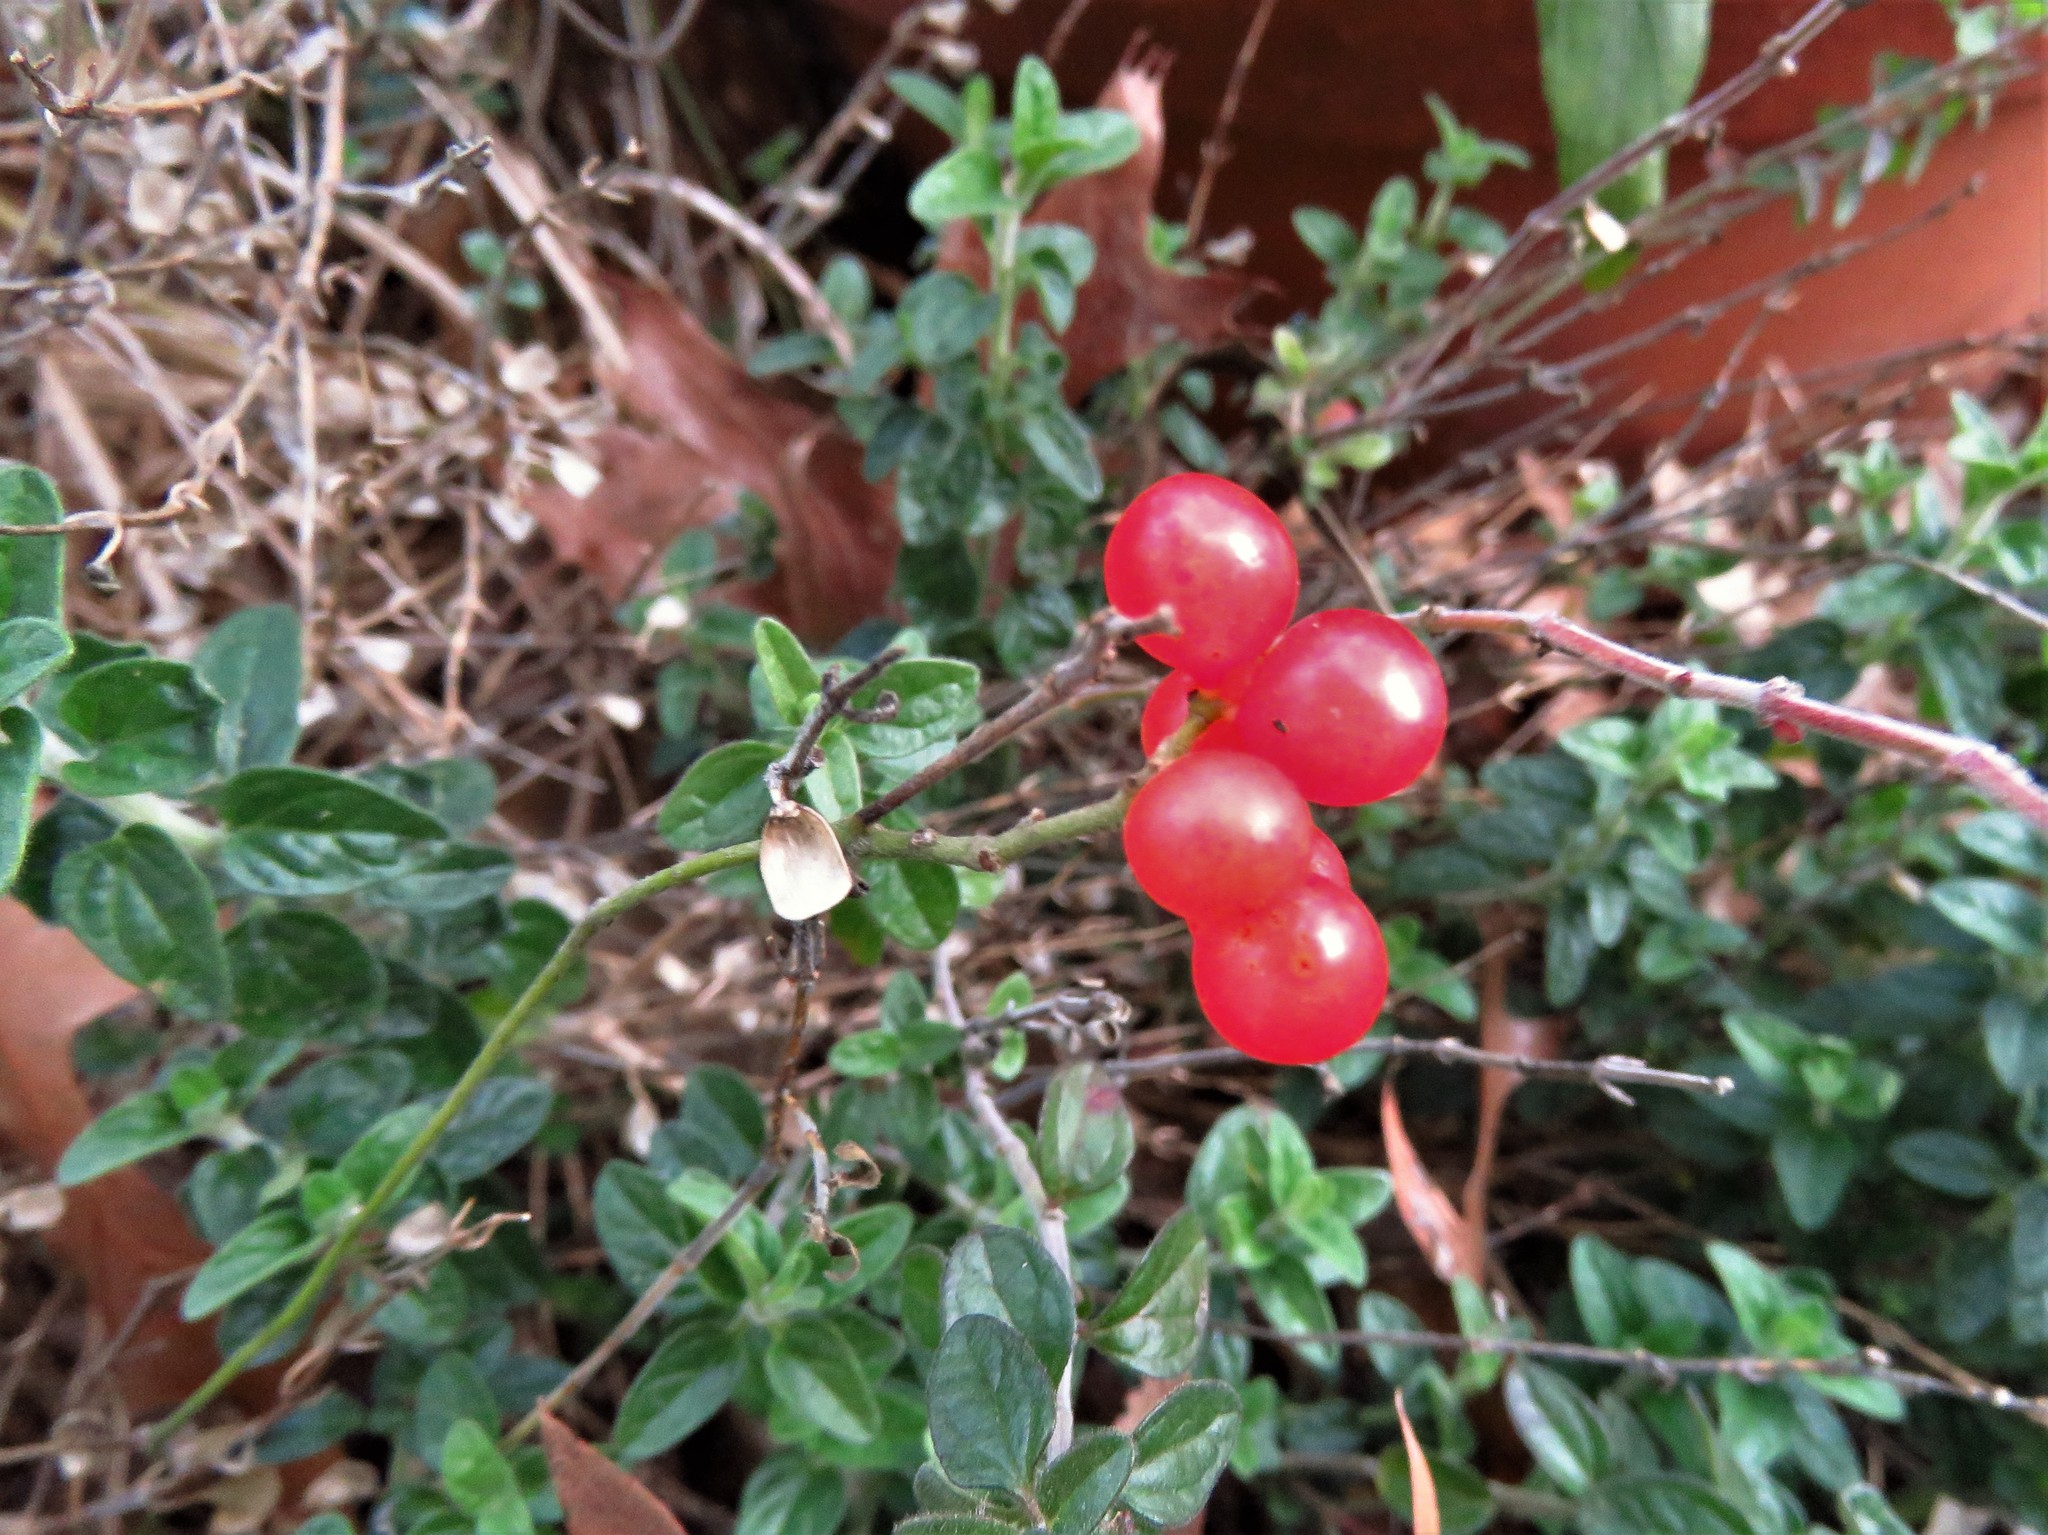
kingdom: Plantae
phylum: Tracheophyta
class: Magnoliopsida
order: Ranunculales
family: Menispermaceae
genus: Cocculus
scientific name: Cocculus carolinus
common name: Carolina moonseed
